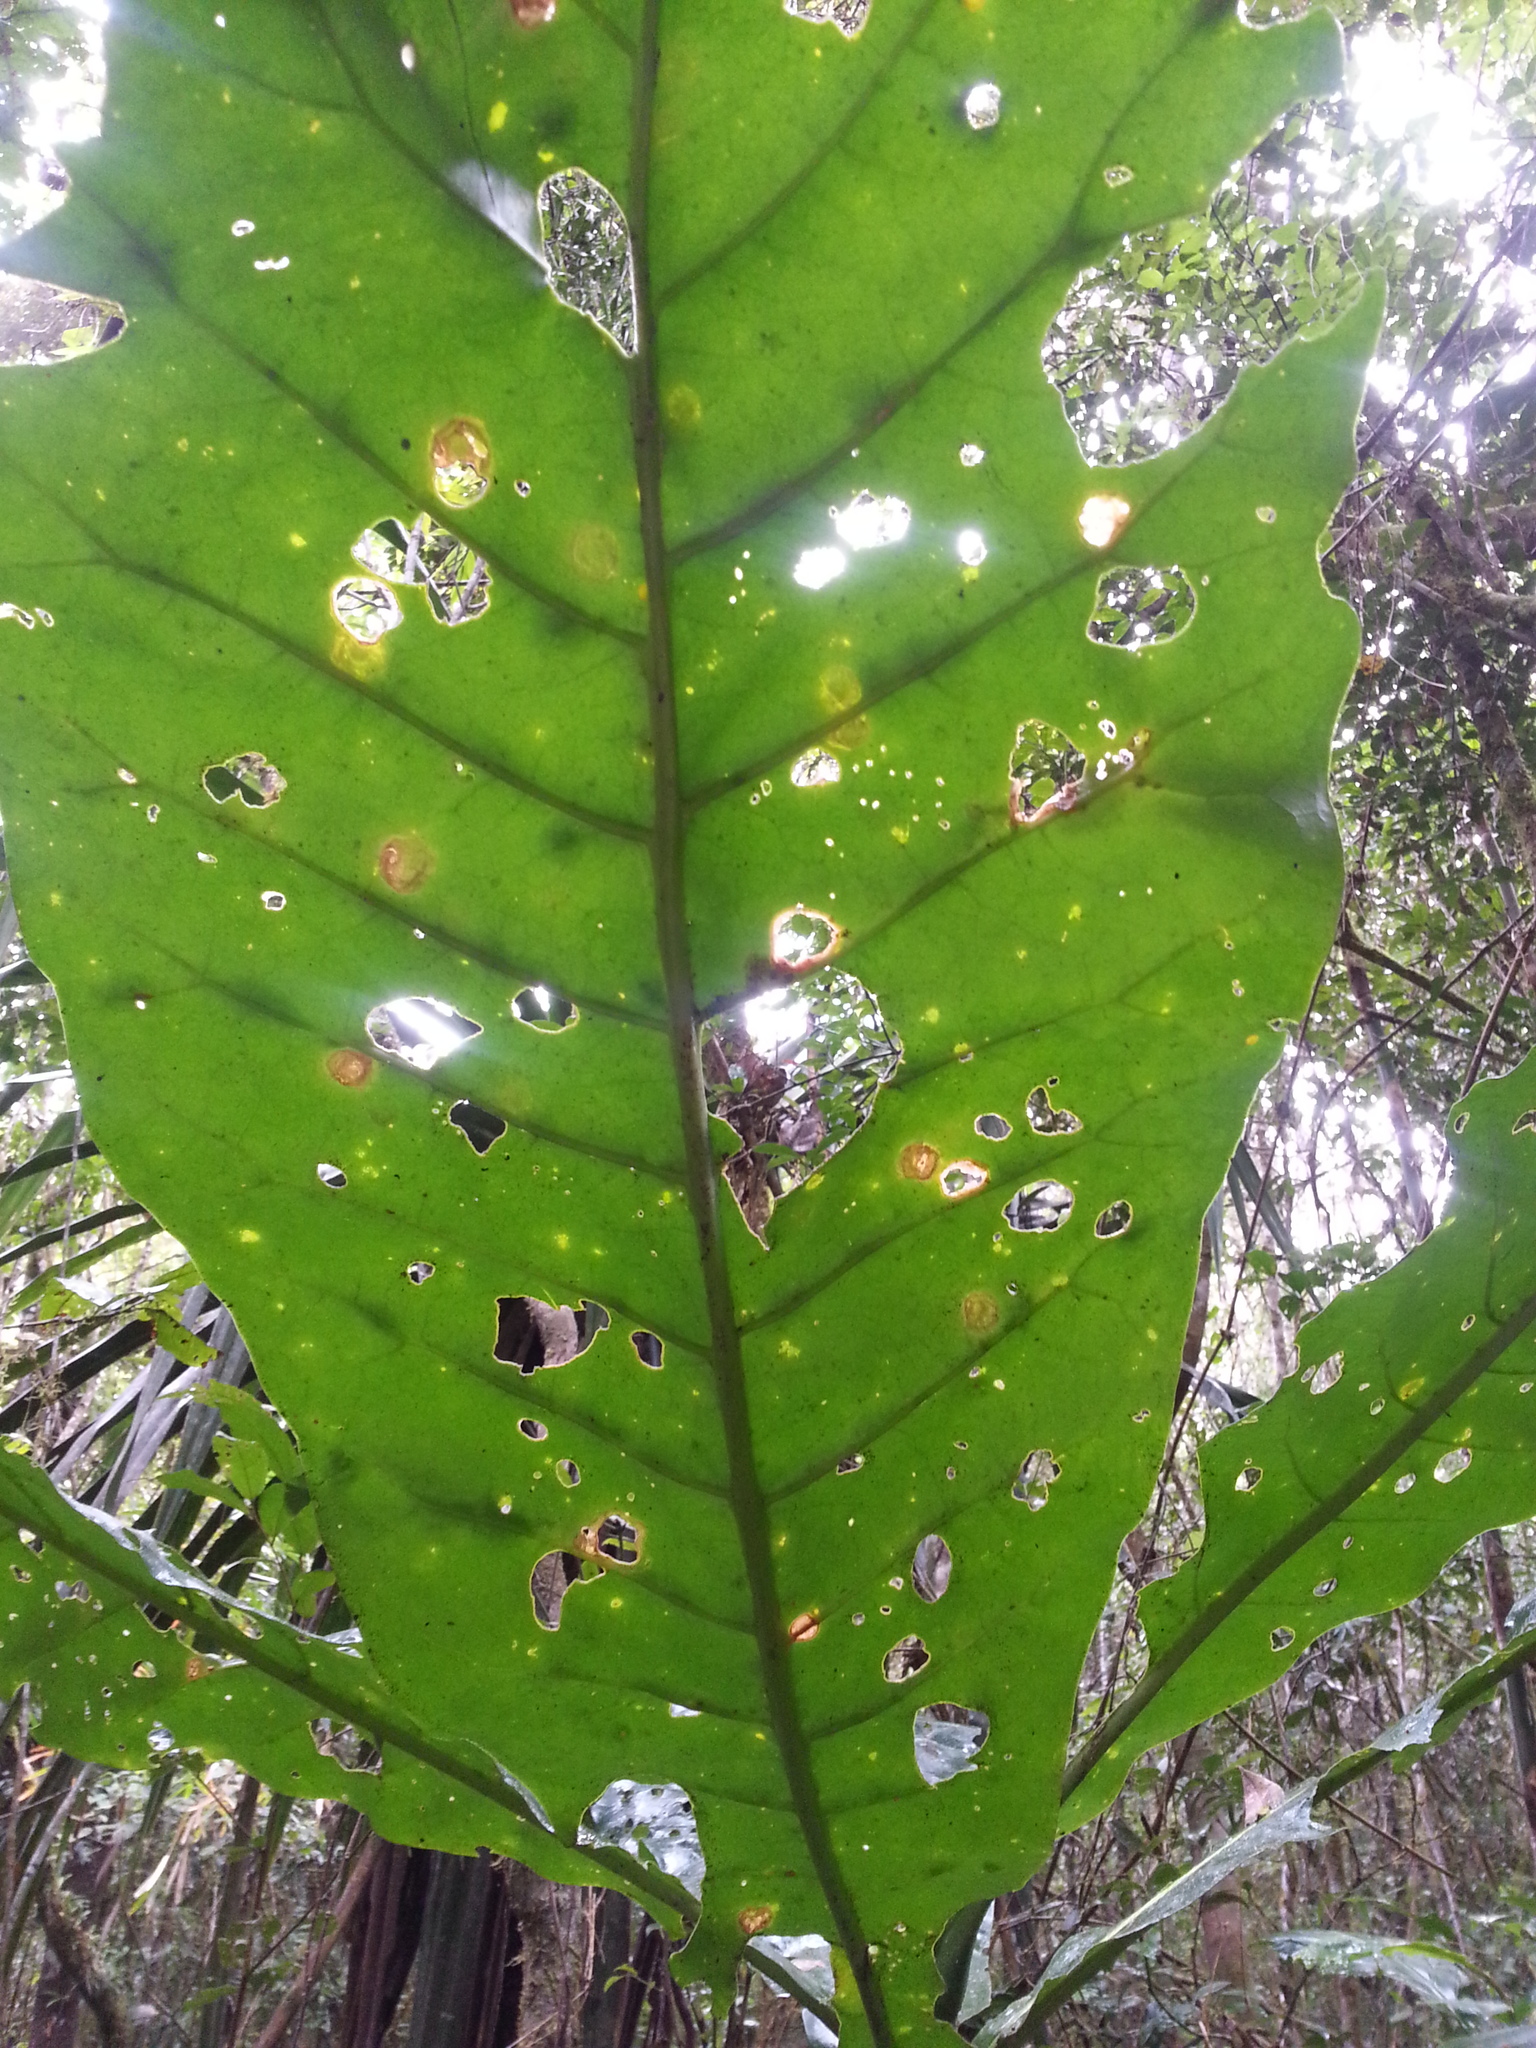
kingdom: Plantae
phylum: Tracheophyta
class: Magnoliopsida
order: Gentianales
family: Gentianaceae
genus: Anthocleista
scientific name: Anthocleista amplexicaulis
